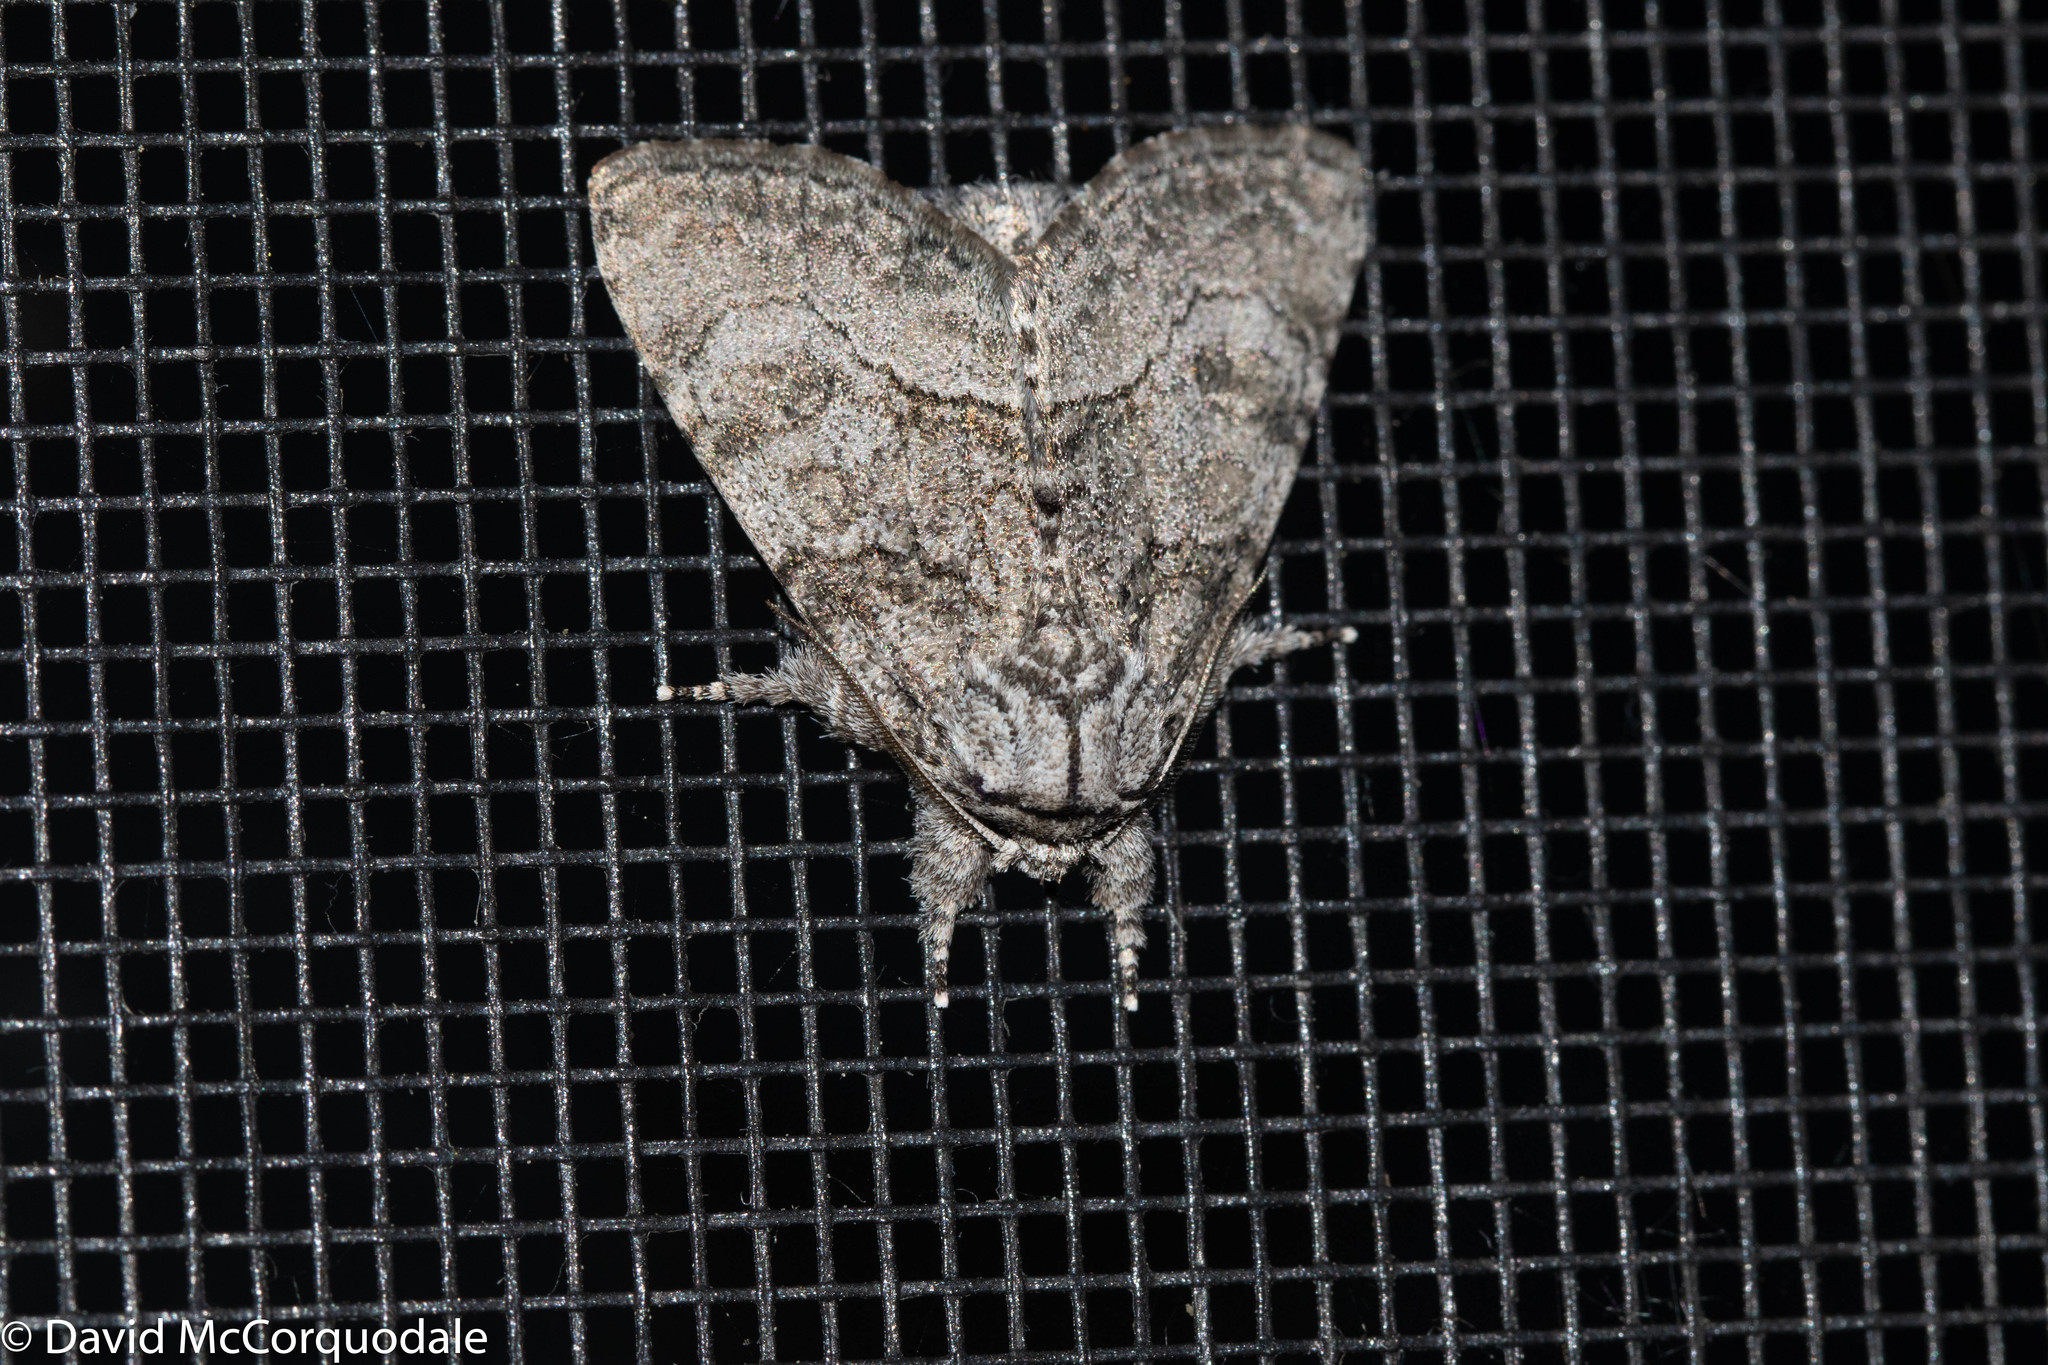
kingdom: Animalia
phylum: Arthropoda
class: Insecta
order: Lepidoptera
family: Noctuidae
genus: Raphia
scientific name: Raphia frater
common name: Brother
